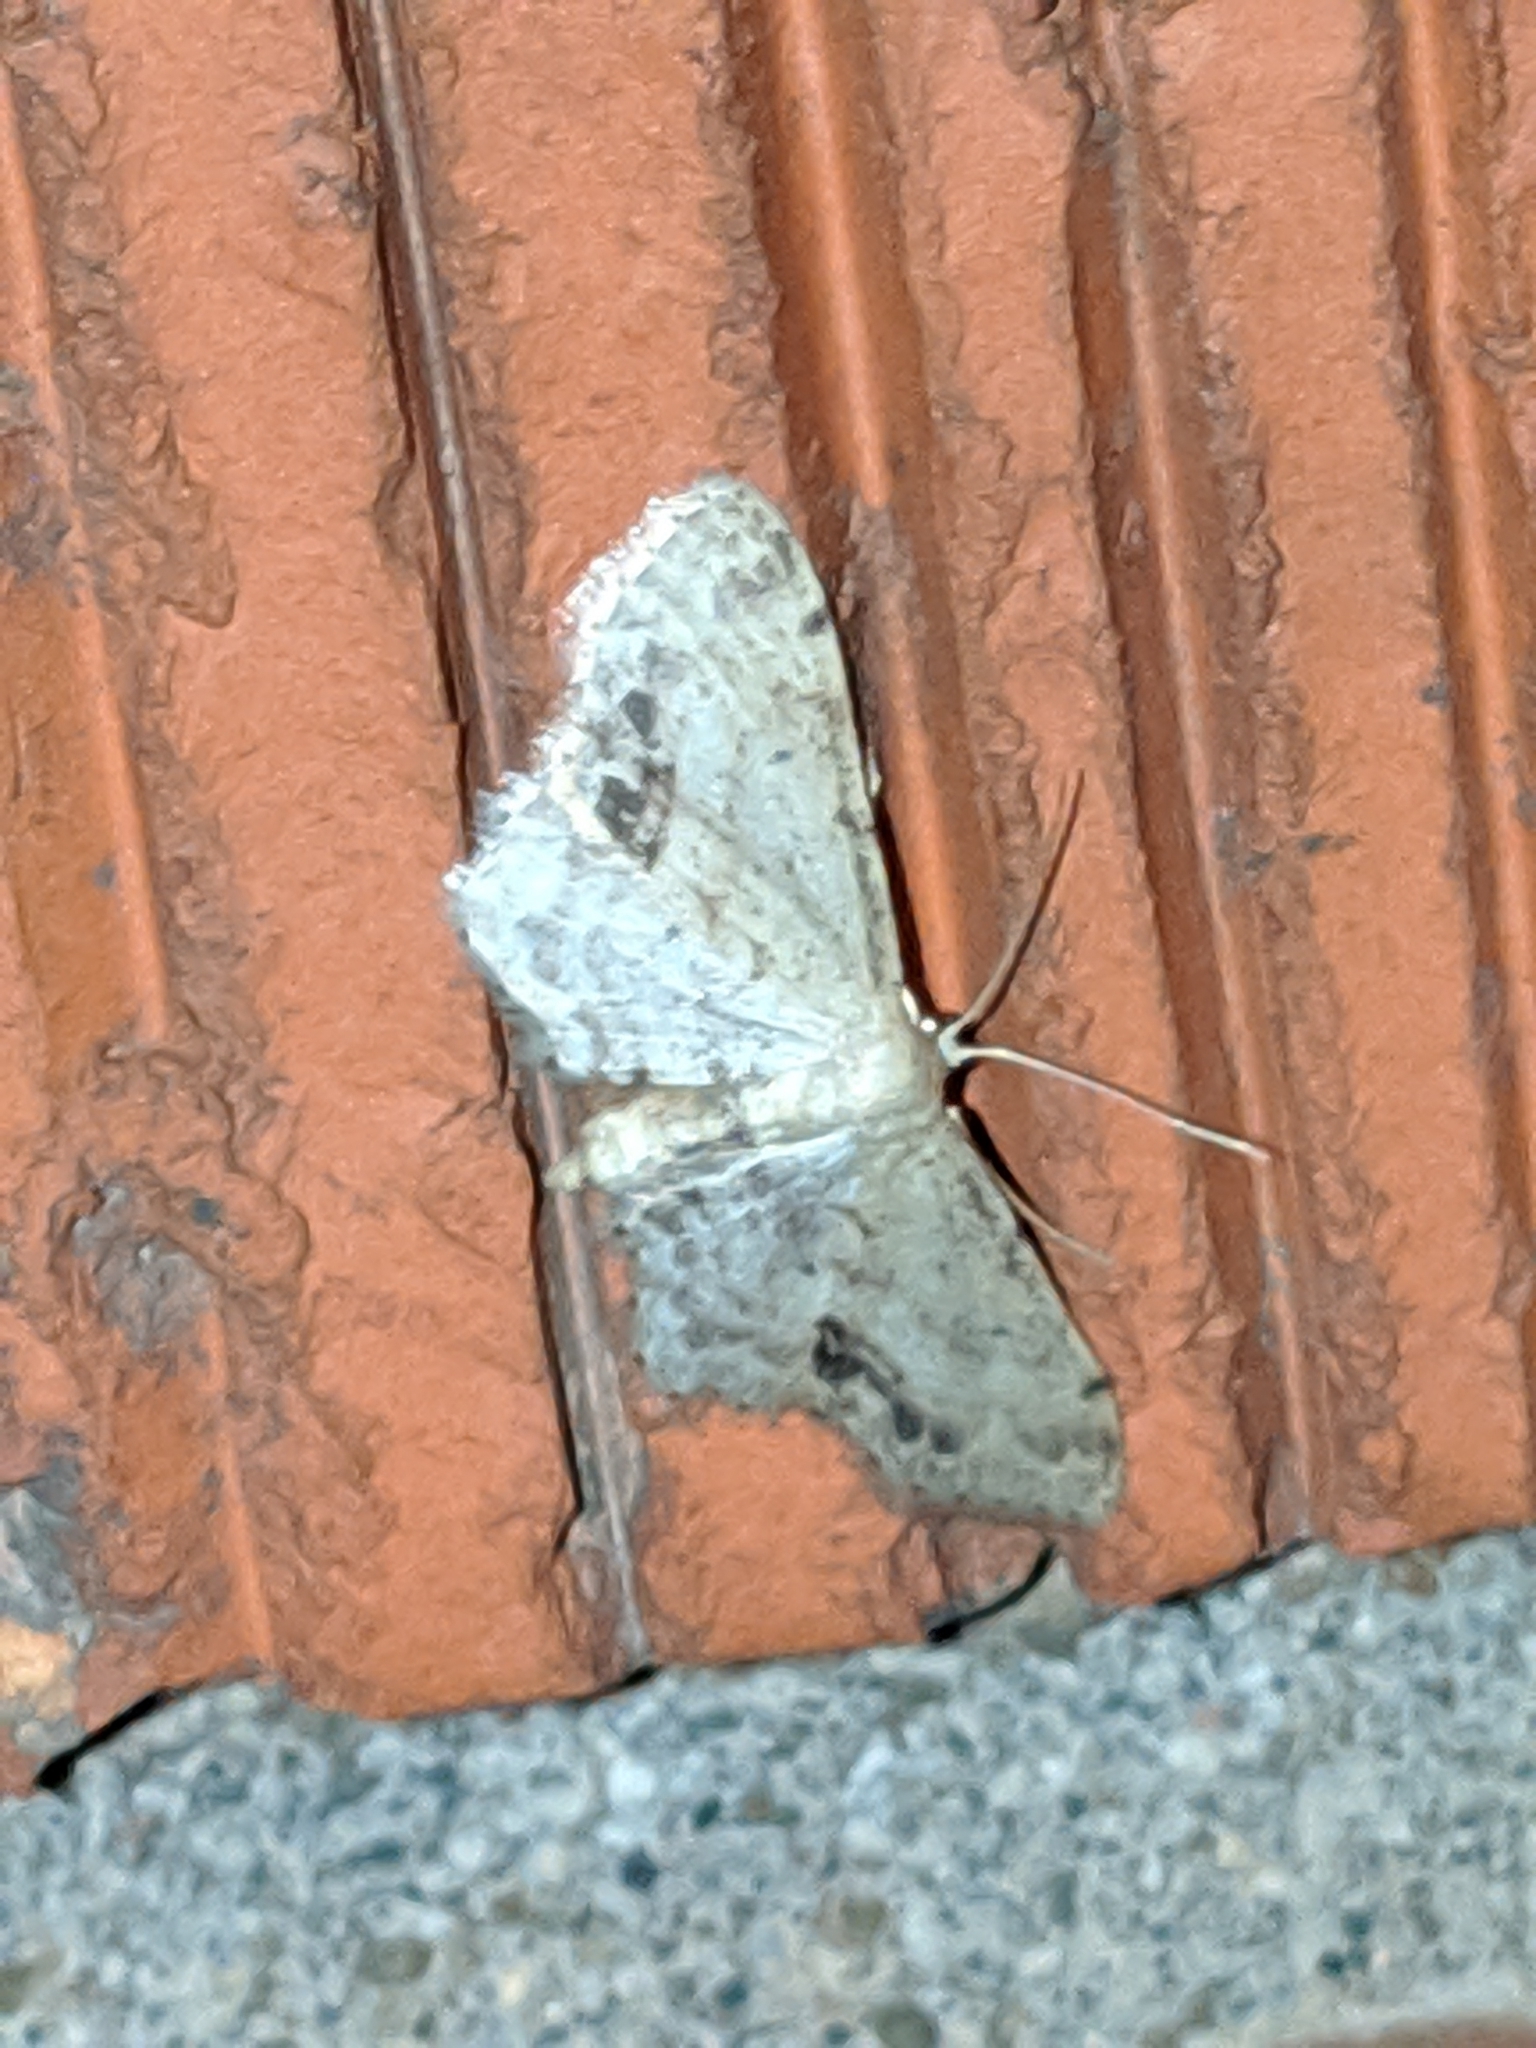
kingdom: Animalia
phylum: Arthropoda
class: Insecta
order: Lepidoptera
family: Geometridae
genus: Idaea
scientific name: Idaea dimidiata
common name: Single-dotted wave
